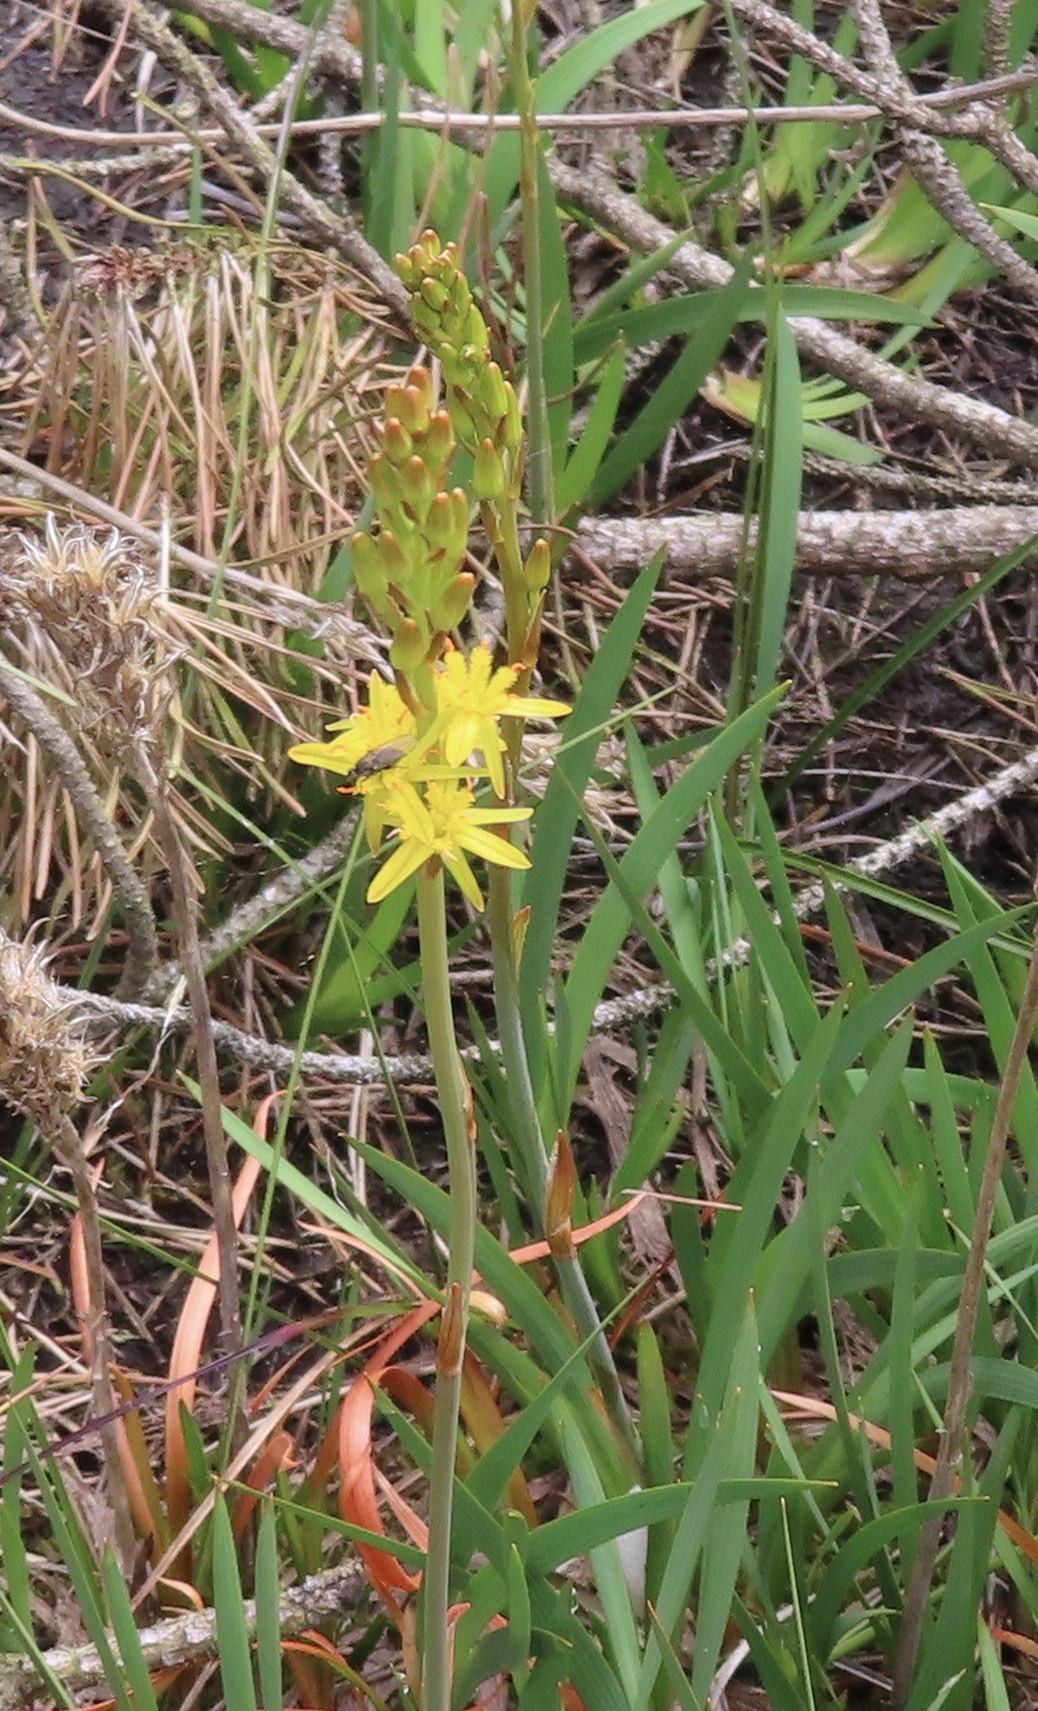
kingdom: Plantae
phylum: Tracheophyta
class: Liliopsida
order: Dioscoreales
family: Nartheciaceae
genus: Narthecium
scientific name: Narthecium ossifragum
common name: Bog asphodel
